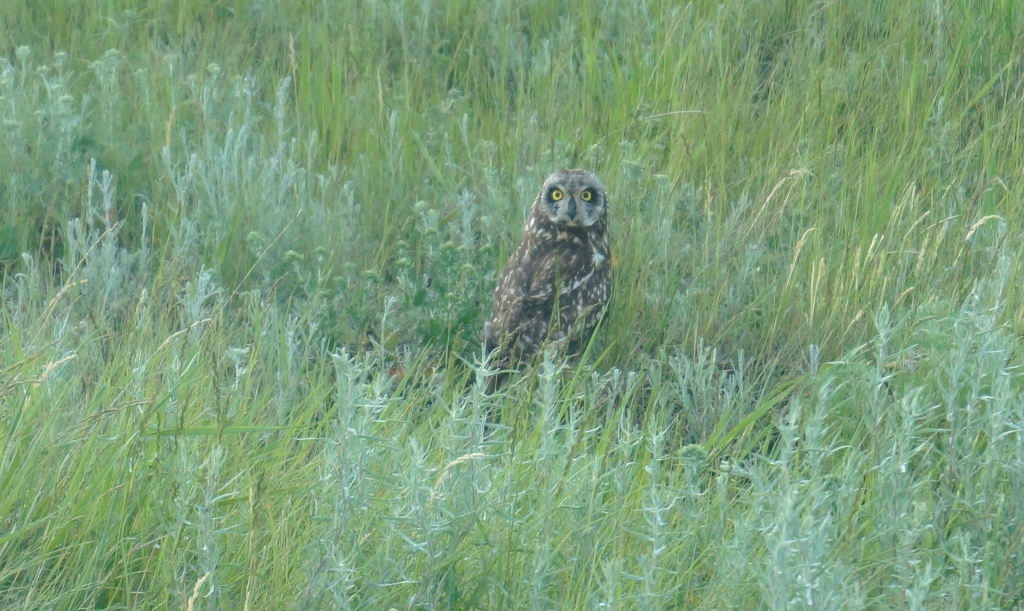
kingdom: Animalia
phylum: Chordata
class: Aves
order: Strigiformes
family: Strigidae
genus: Asio
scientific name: Asio flammeus
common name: Short-eared owl
